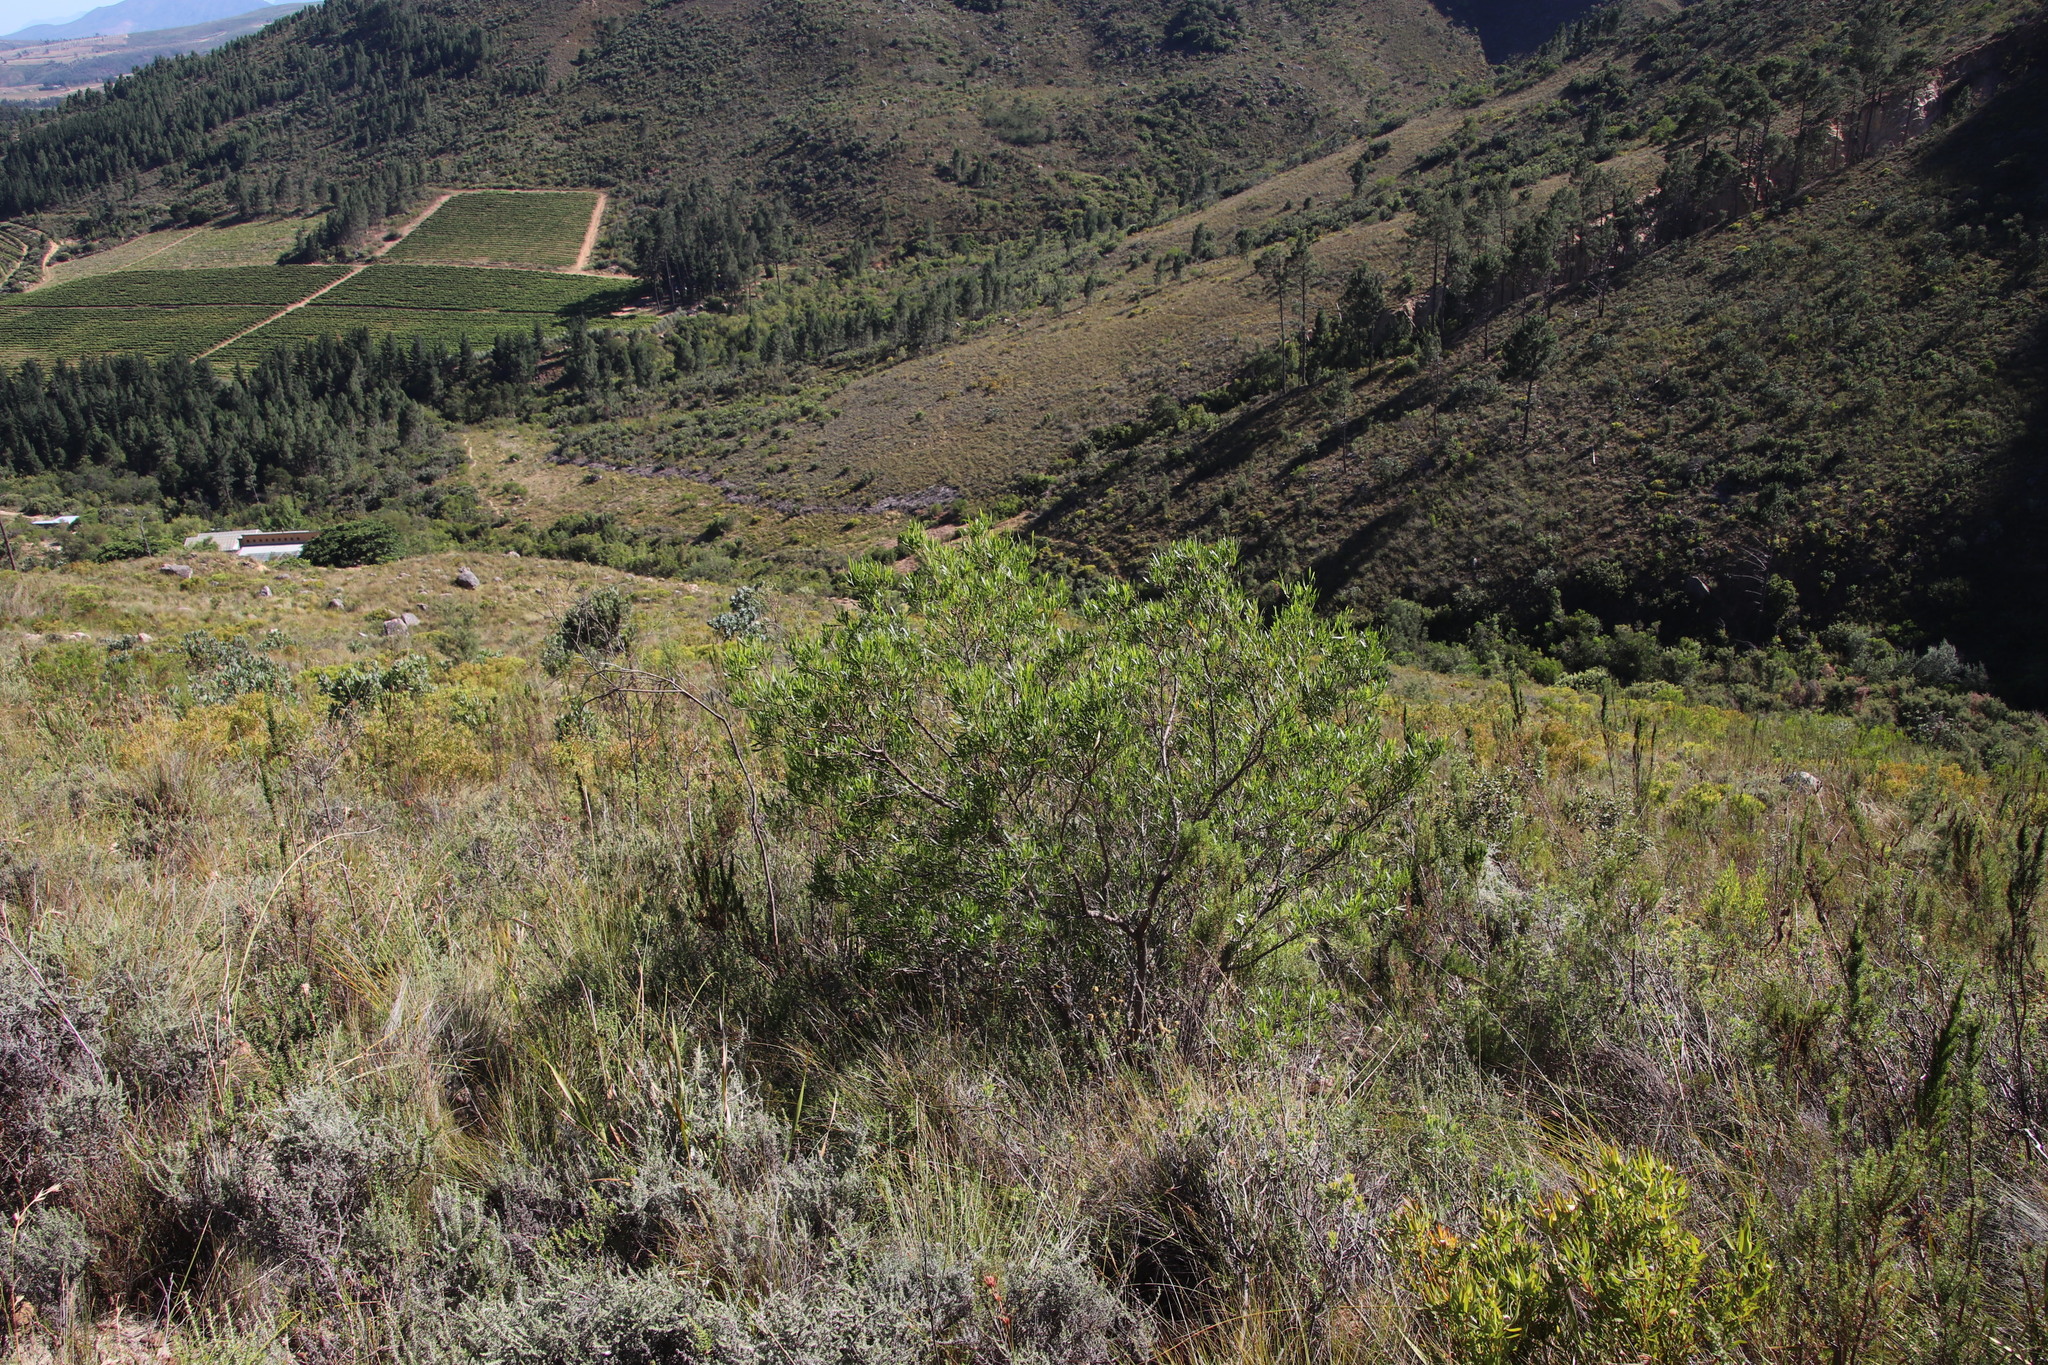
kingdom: Plantae
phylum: Tracheophyta
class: Magnoliopsida
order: Sapindales
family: Sapindaceae
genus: Dodonaea
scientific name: Dodonaea viscosa
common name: Hopbush
